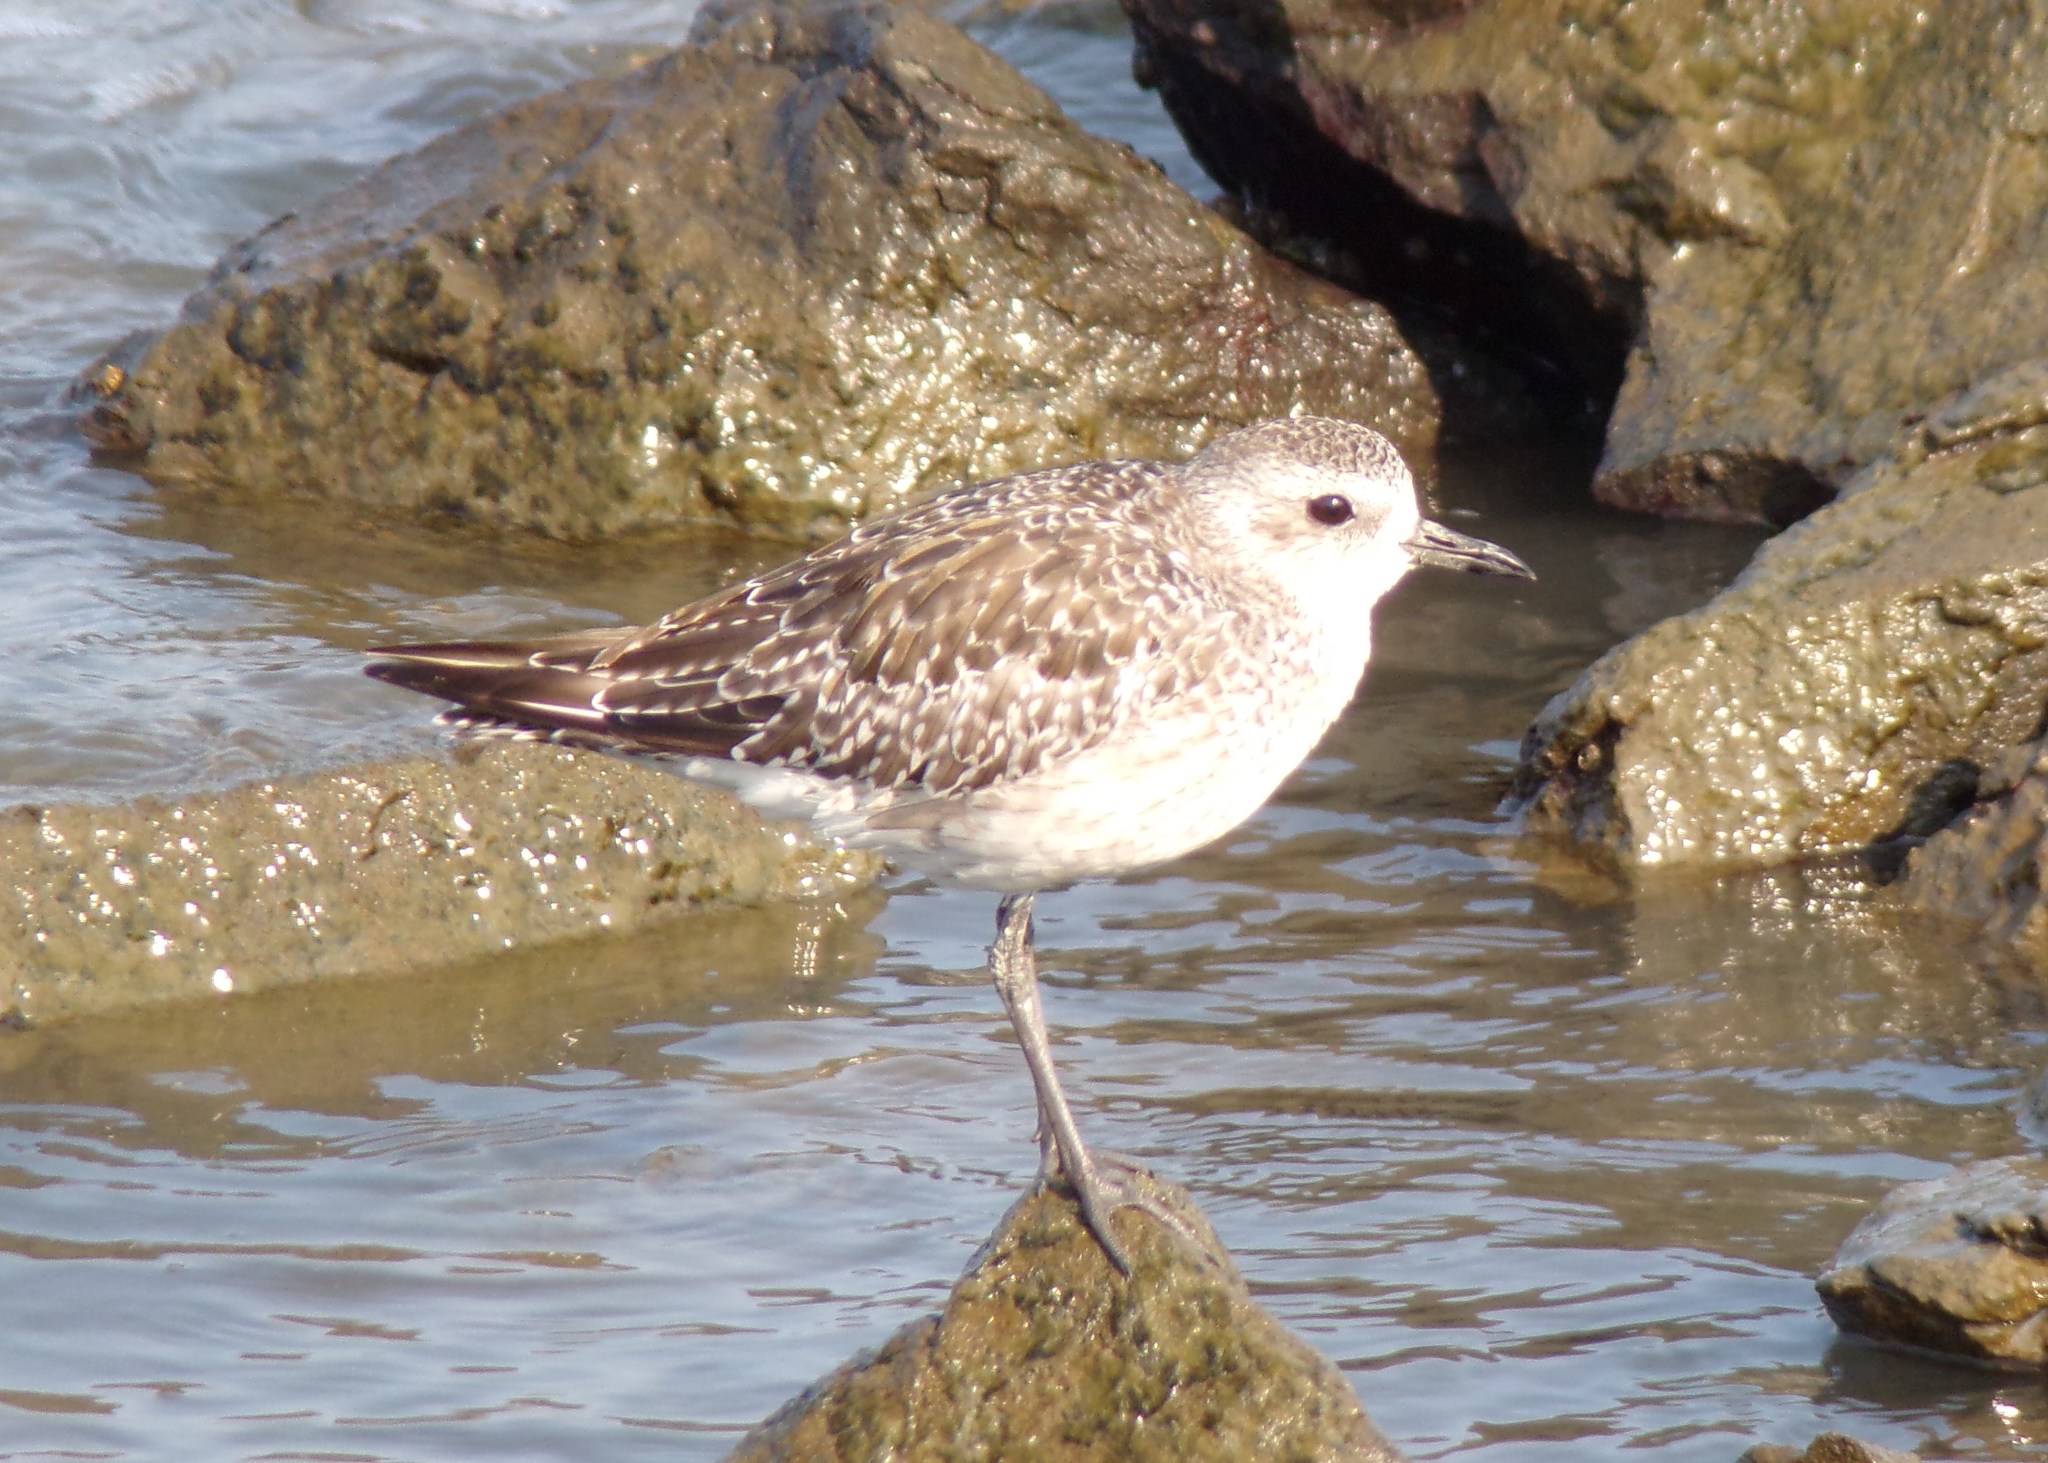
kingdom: Animalia
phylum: Chordata
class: Aves
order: Charadriiformes
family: Charadriidae
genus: Pluvialis
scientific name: Pluvialis squatarola
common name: Grey plover
